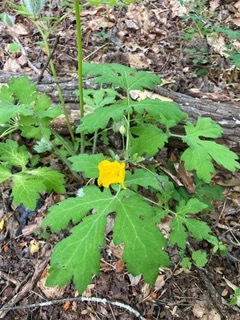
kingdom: Plantae
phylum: Tracheophyta
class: Magnoliopsida
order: Ranunculales
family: Papaveraceae
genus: Stylophorum
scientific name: Stylophorum diphyllum
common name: Celandine poppy
